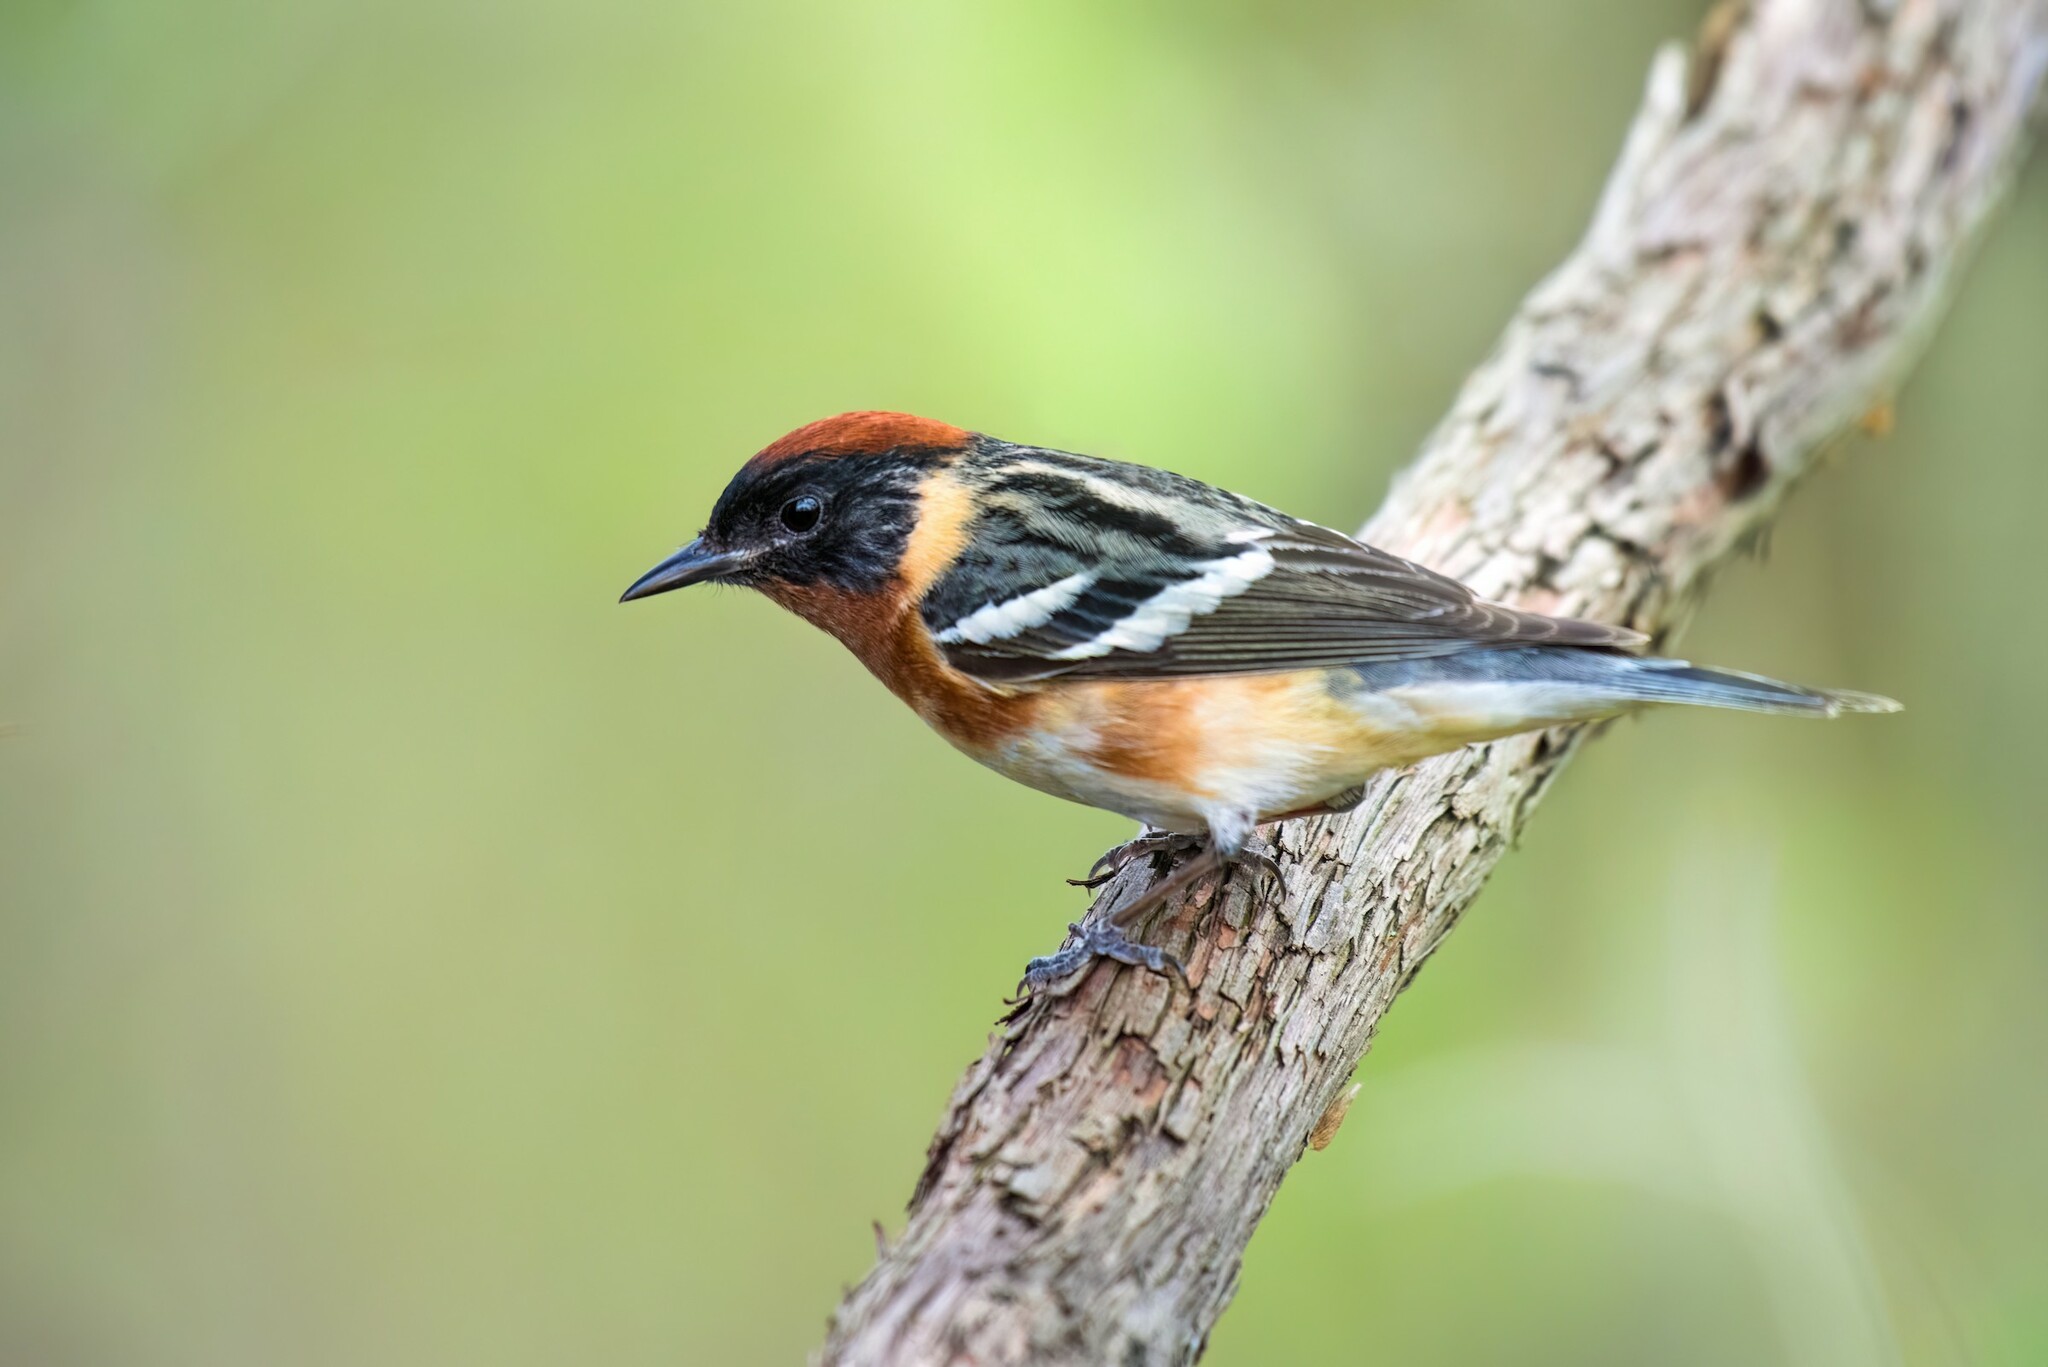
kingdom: Animalia
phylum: Chordata
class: Aves
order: Passeriformes
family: Parulidae
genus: Setophaga
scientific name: Setophaga castanea
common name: Bay-breasted warbler
